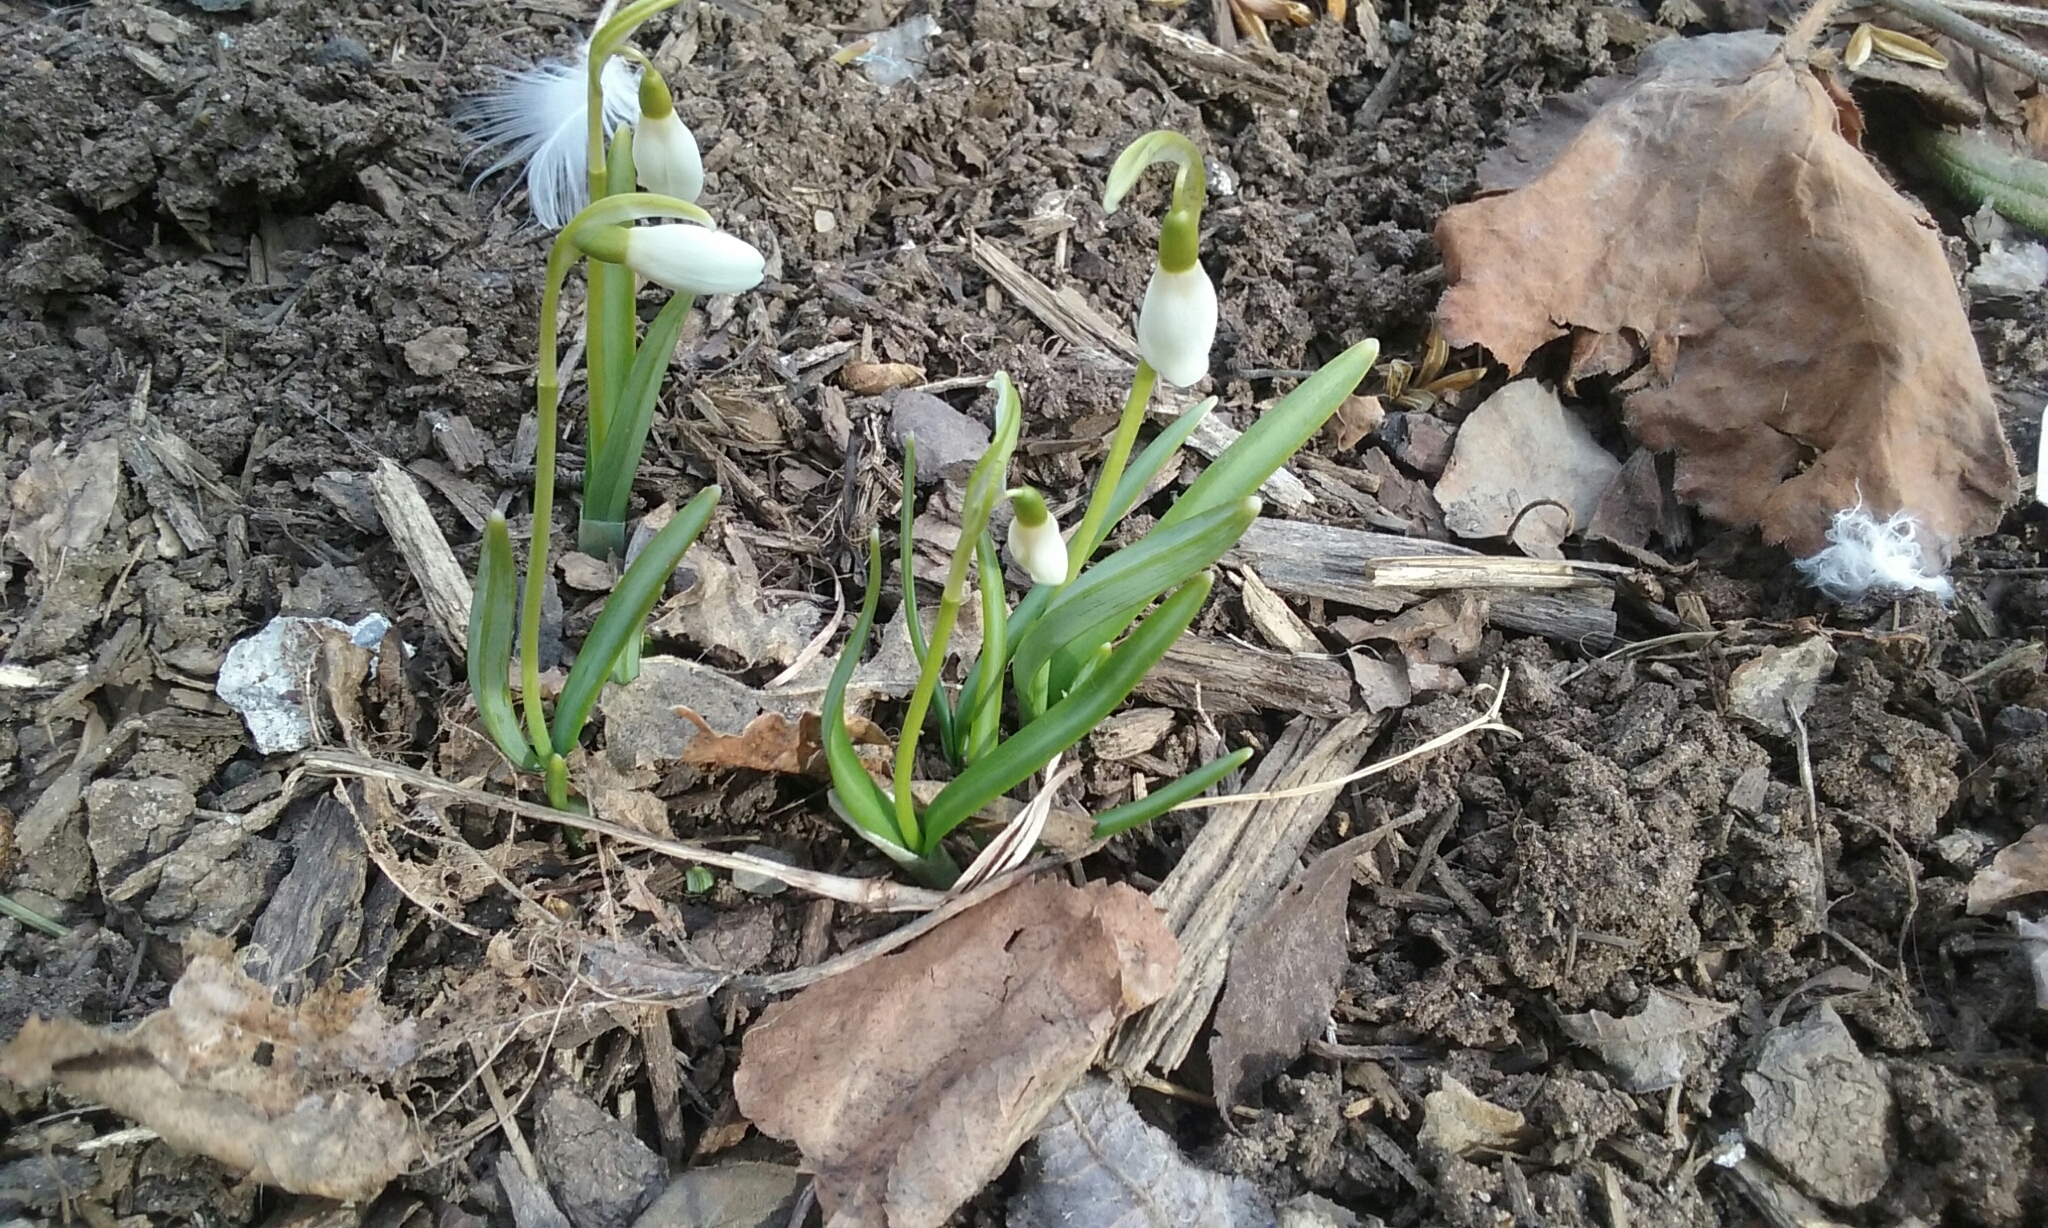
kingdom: Plantae
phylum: Tracheophyta
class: Liliopsida
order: Asparagales
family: Amaryllidaceae
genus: Galanthus
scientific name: Galanthus nivalis
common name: Snowdrop
